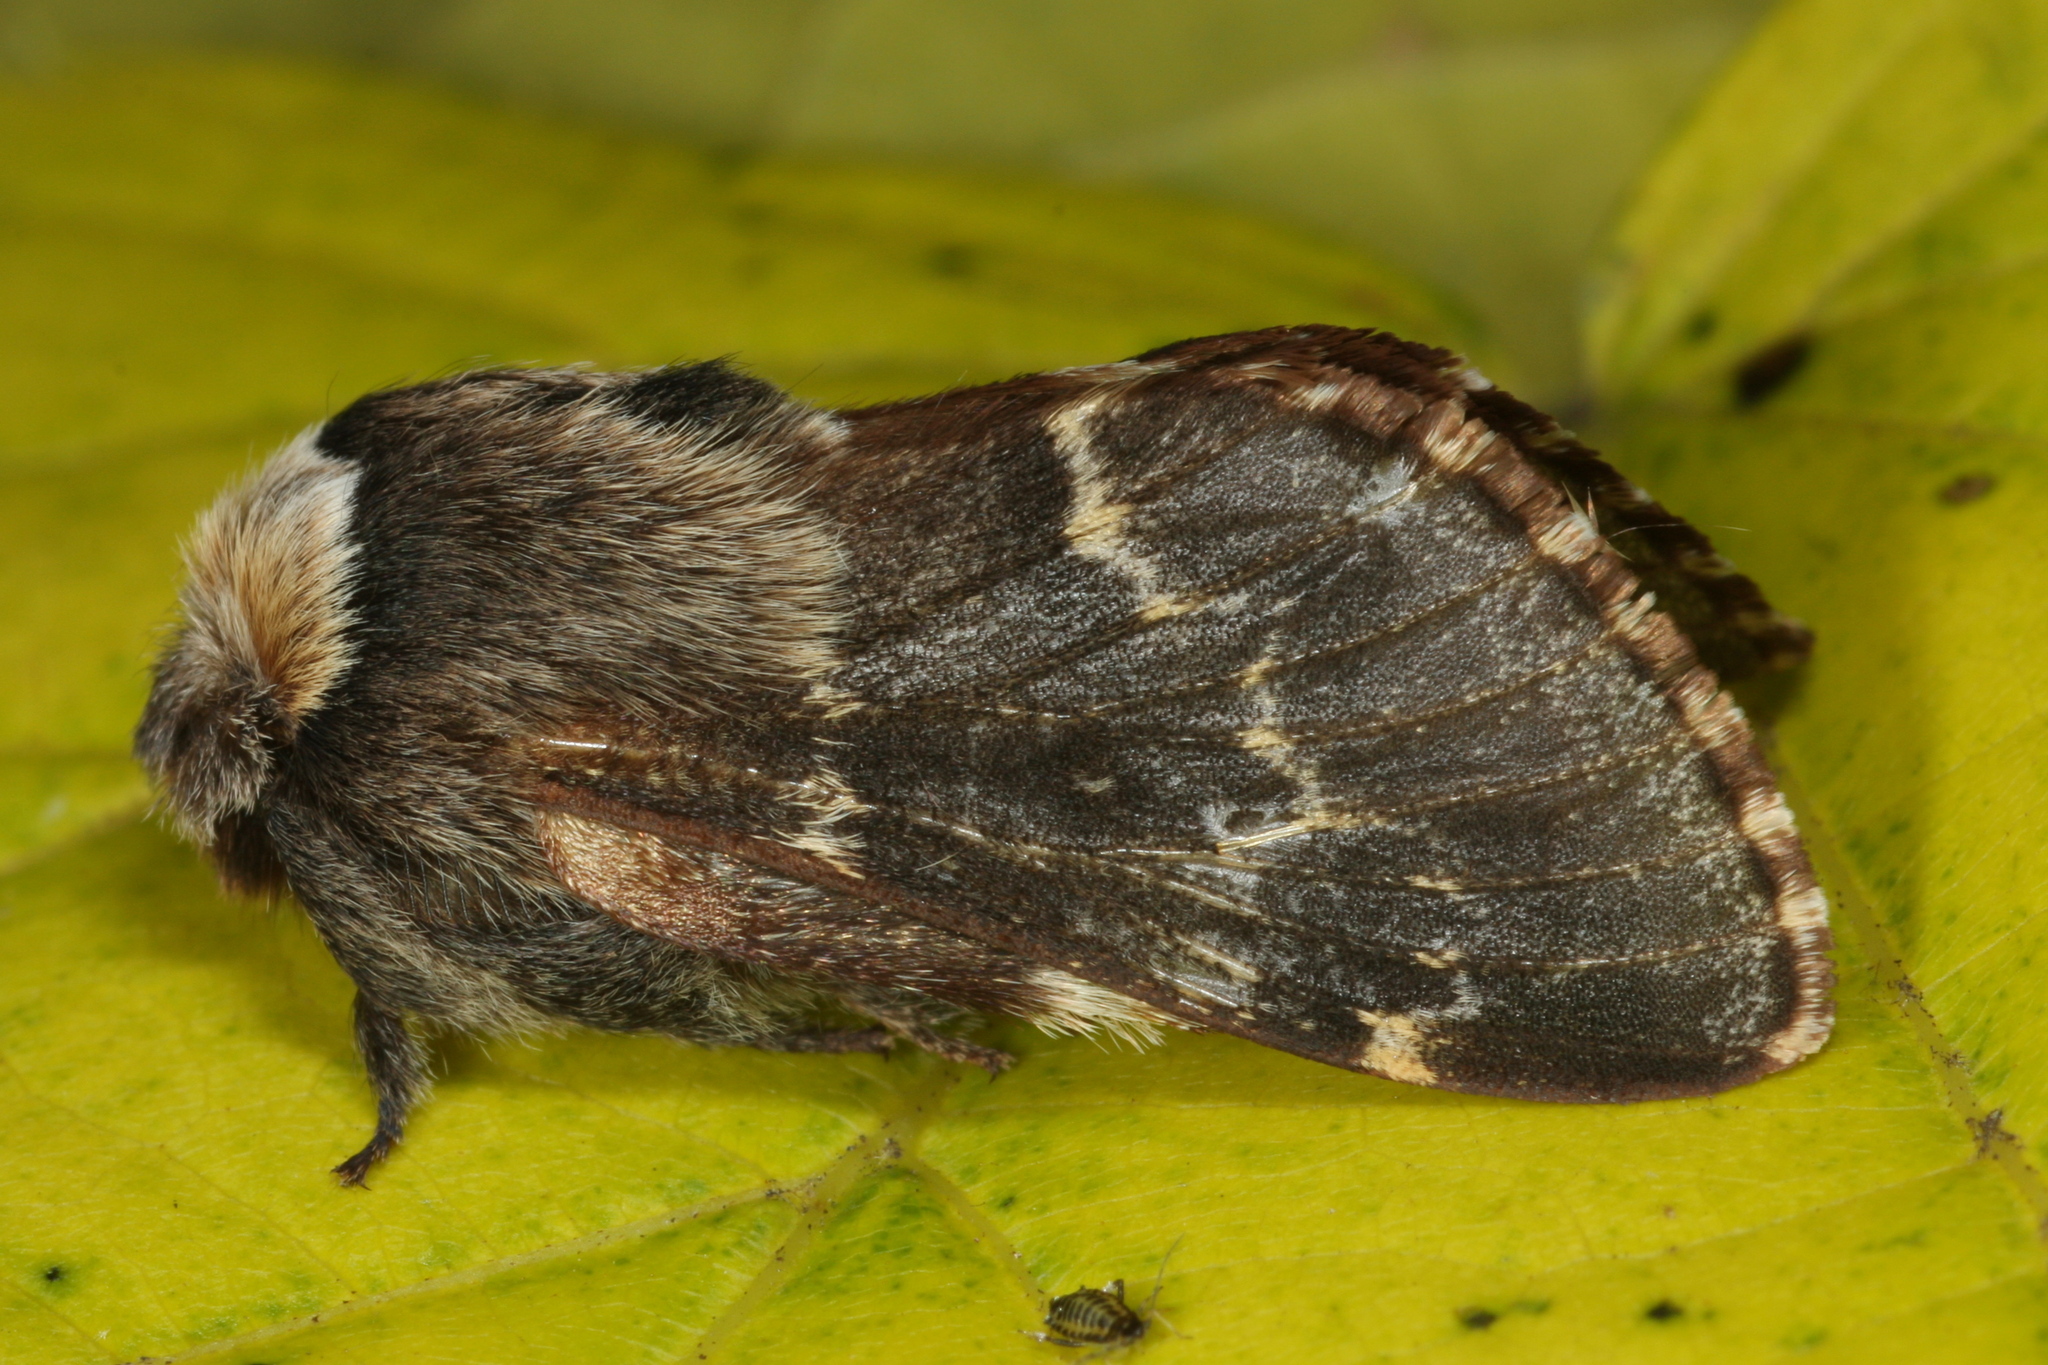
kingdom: Animalia
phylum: Arthropoda
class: Insecta
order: Lepidoptera
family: Lasiocampidae
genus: Poecilocampa
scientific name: Poecilocampa populi
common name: December moth
